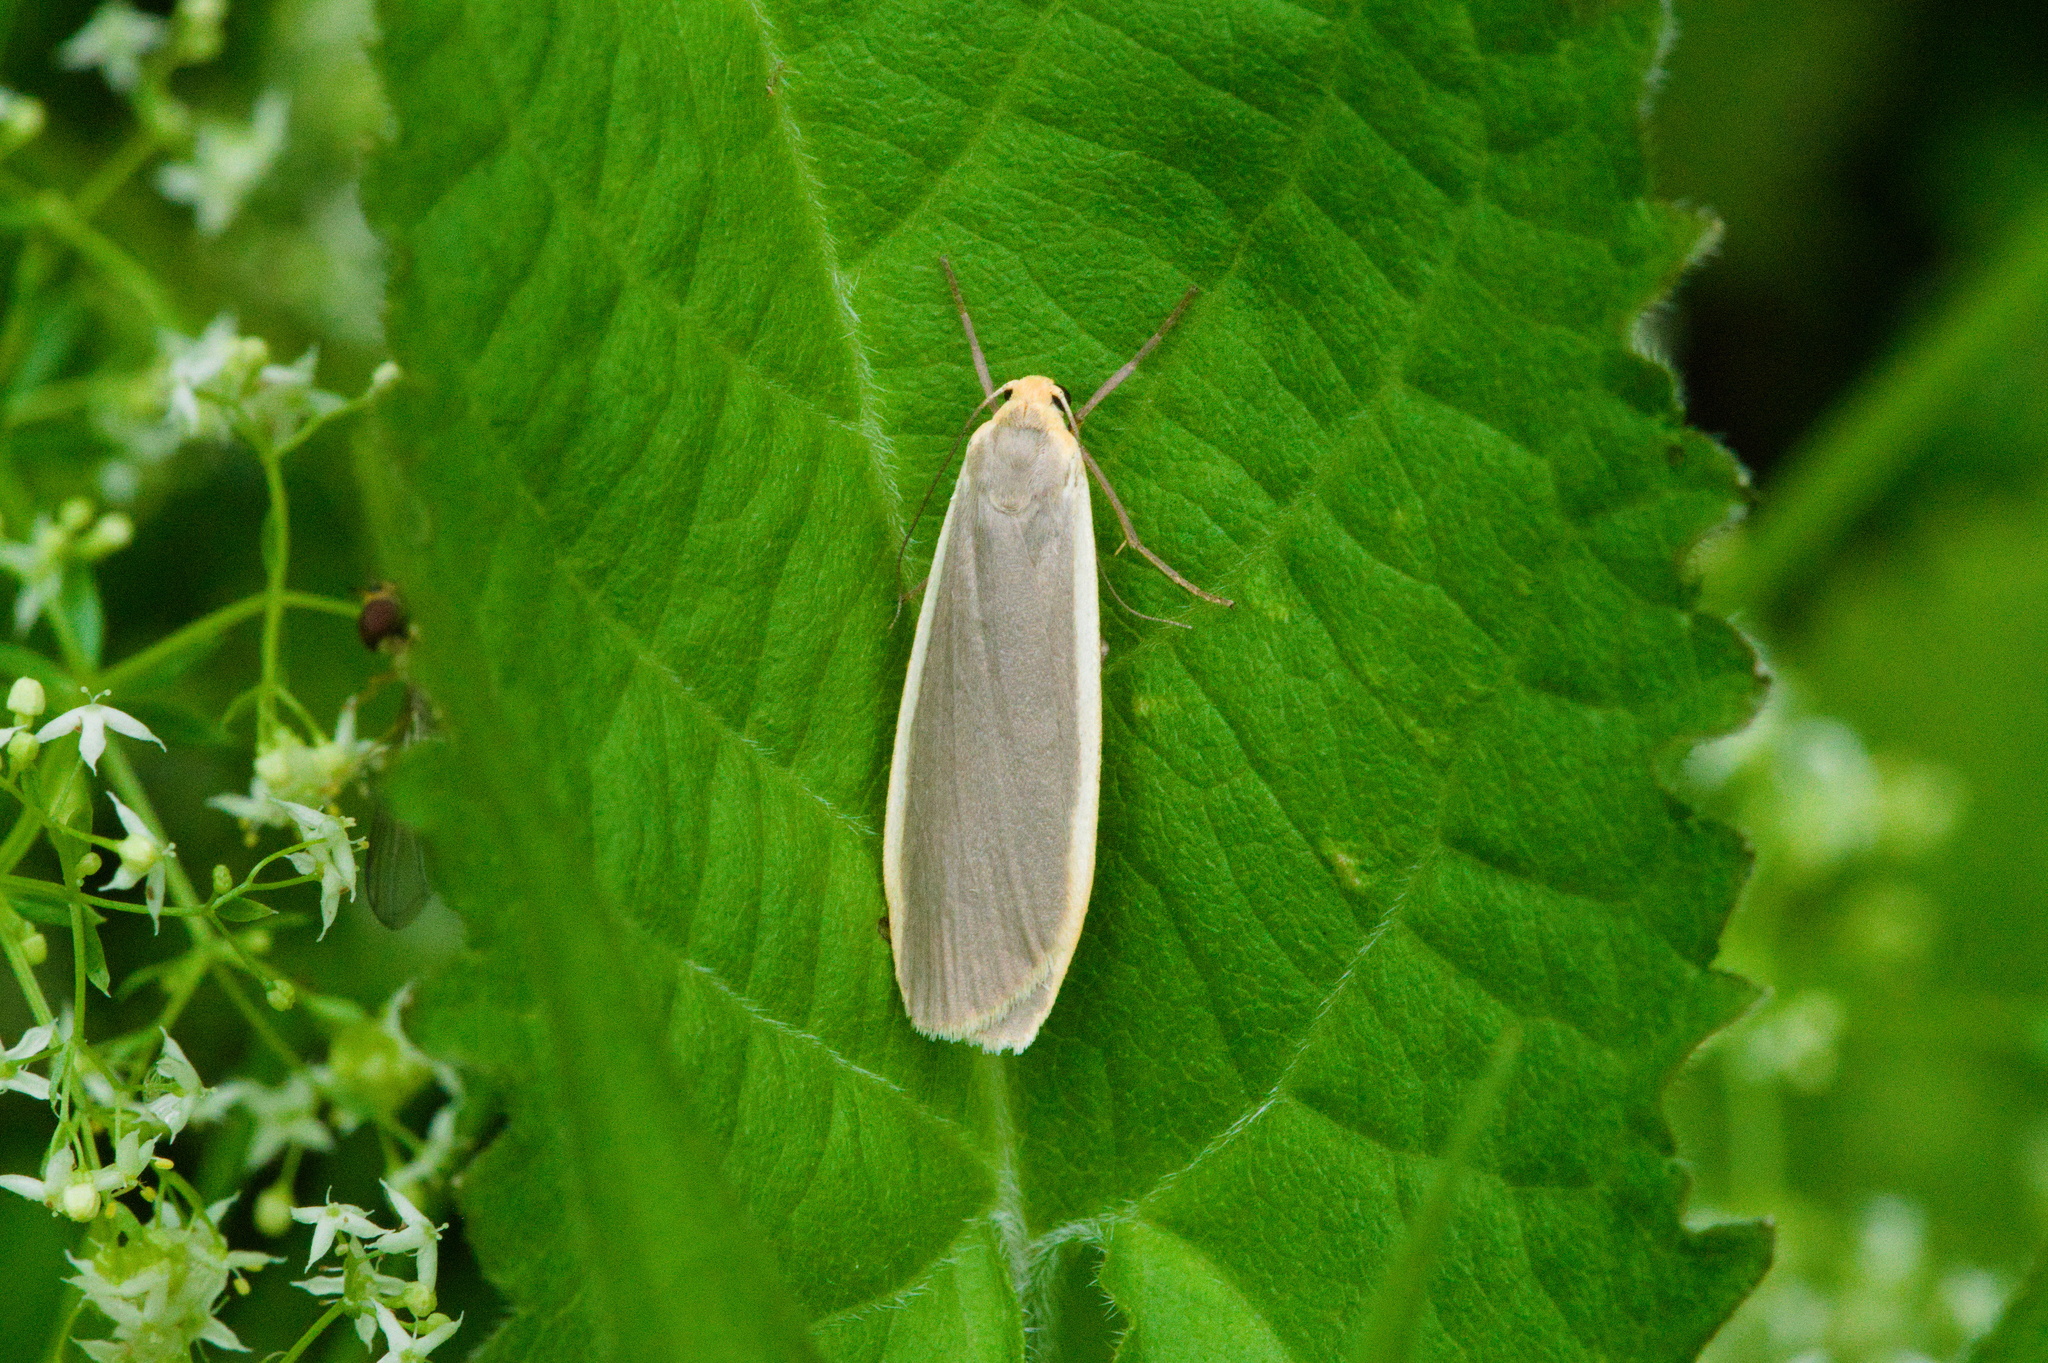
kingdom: Animalia
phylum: Arthropoda
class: Insecta
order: Lepidoptera
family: Erebidae
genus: Nyea
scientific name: Nyea lurideola
